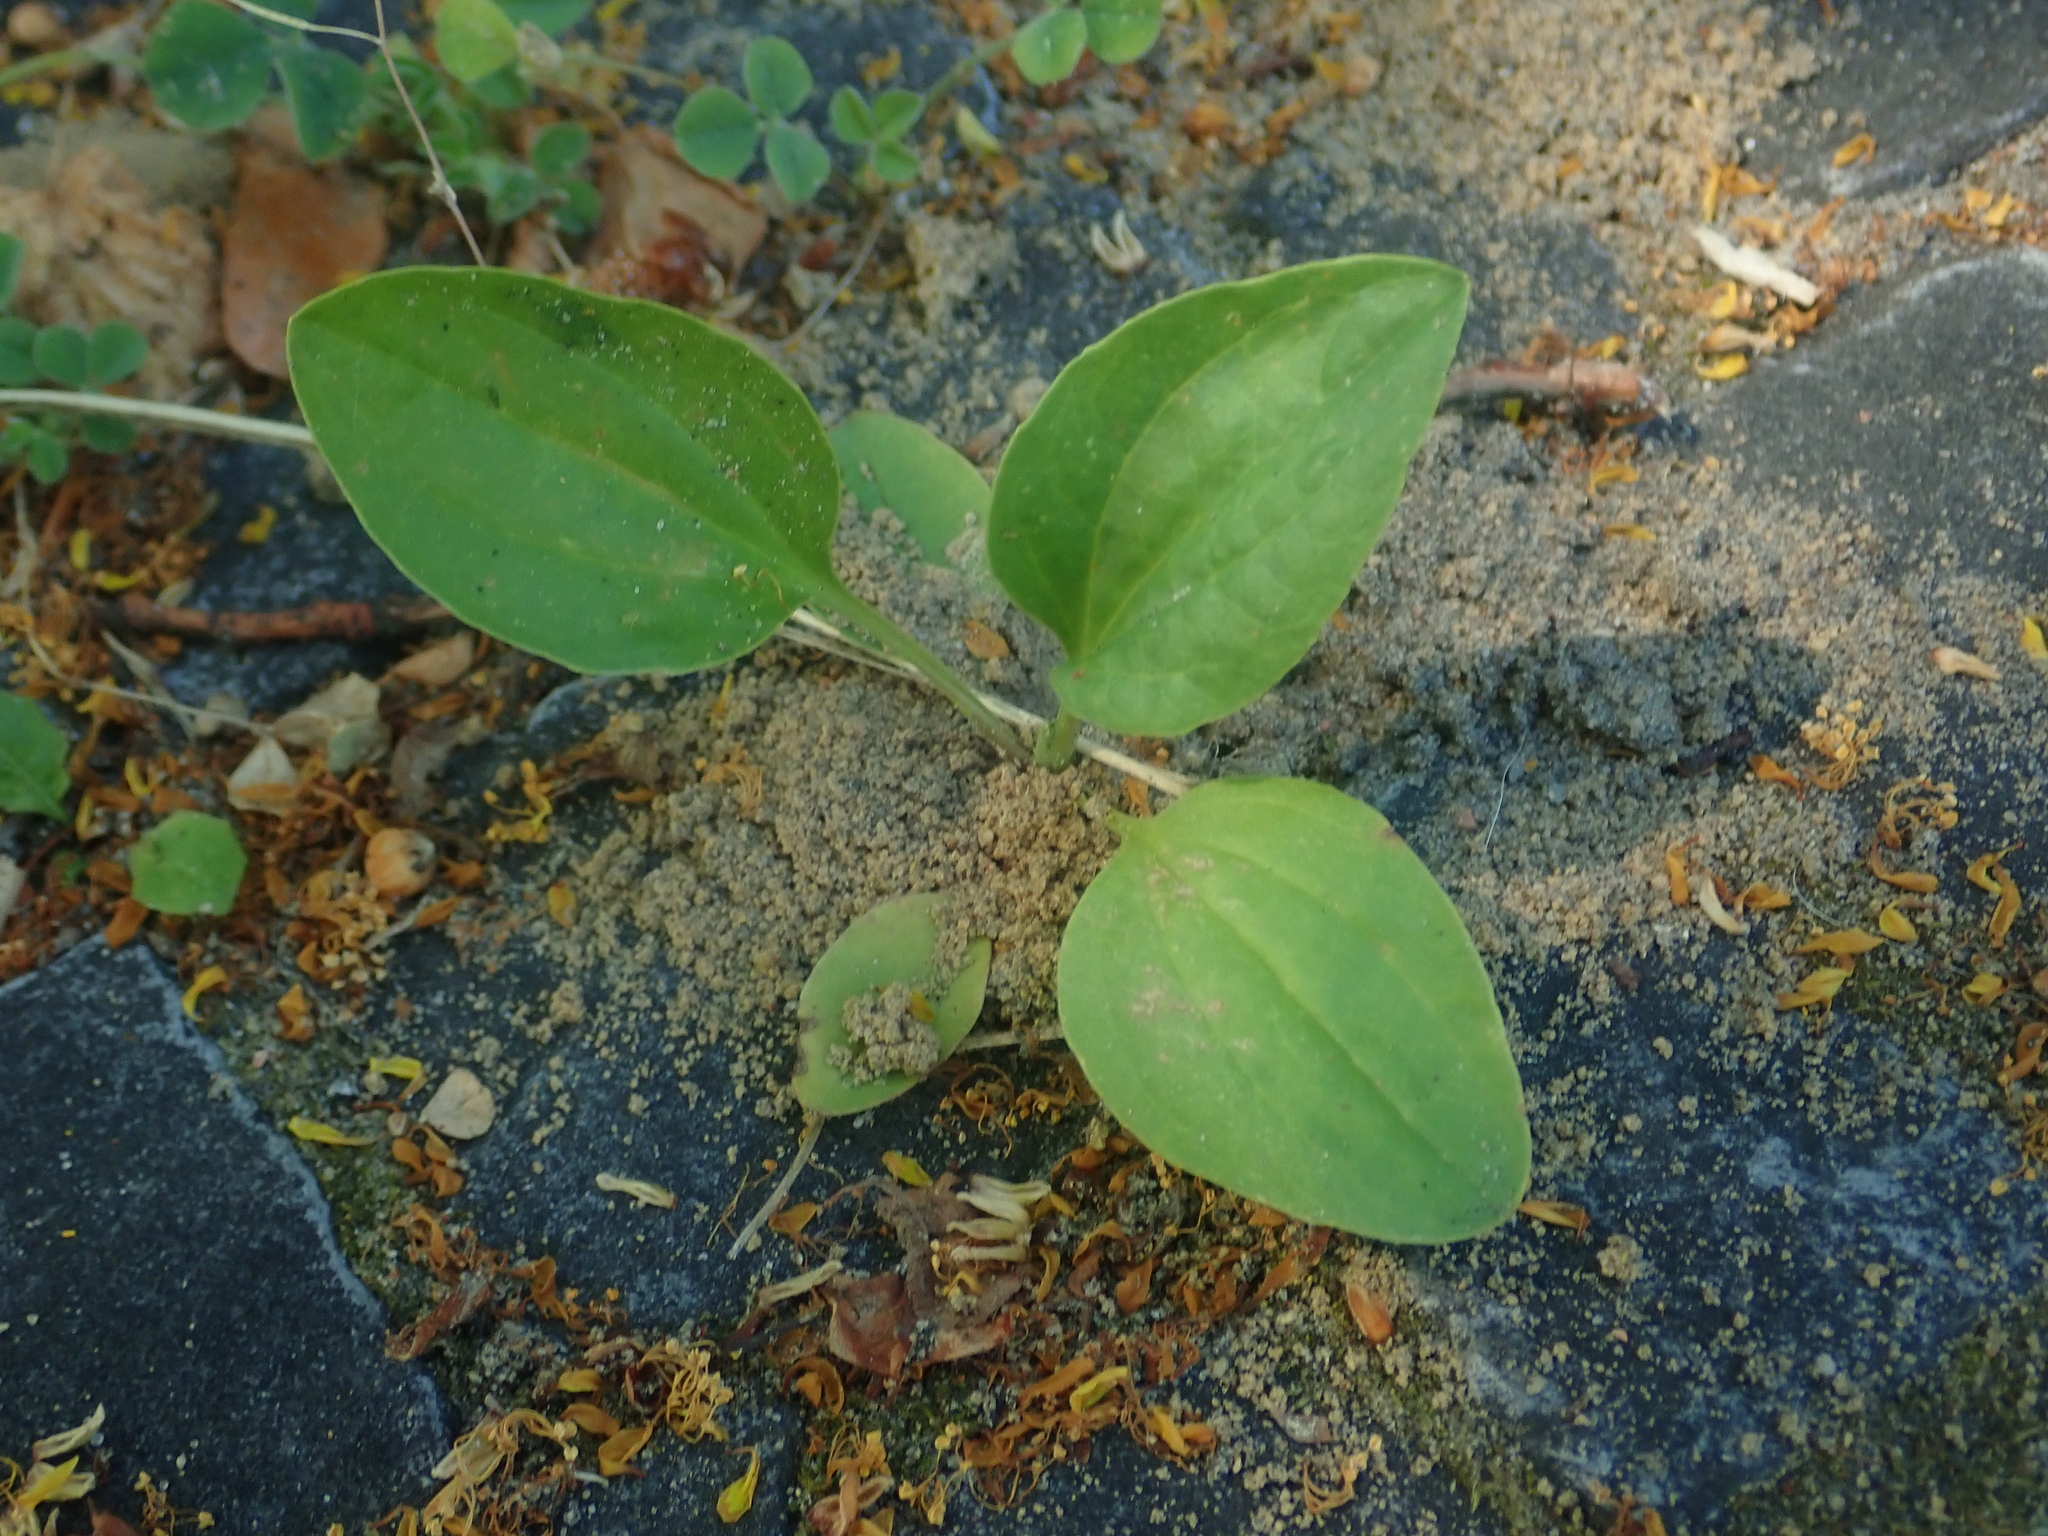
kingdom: Plantae
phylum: Tracheophyta
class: Magnoliopsida
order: Lamiales
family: Plantaginaceae
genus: Plantago
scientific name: Plantago major
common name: Common plantain
